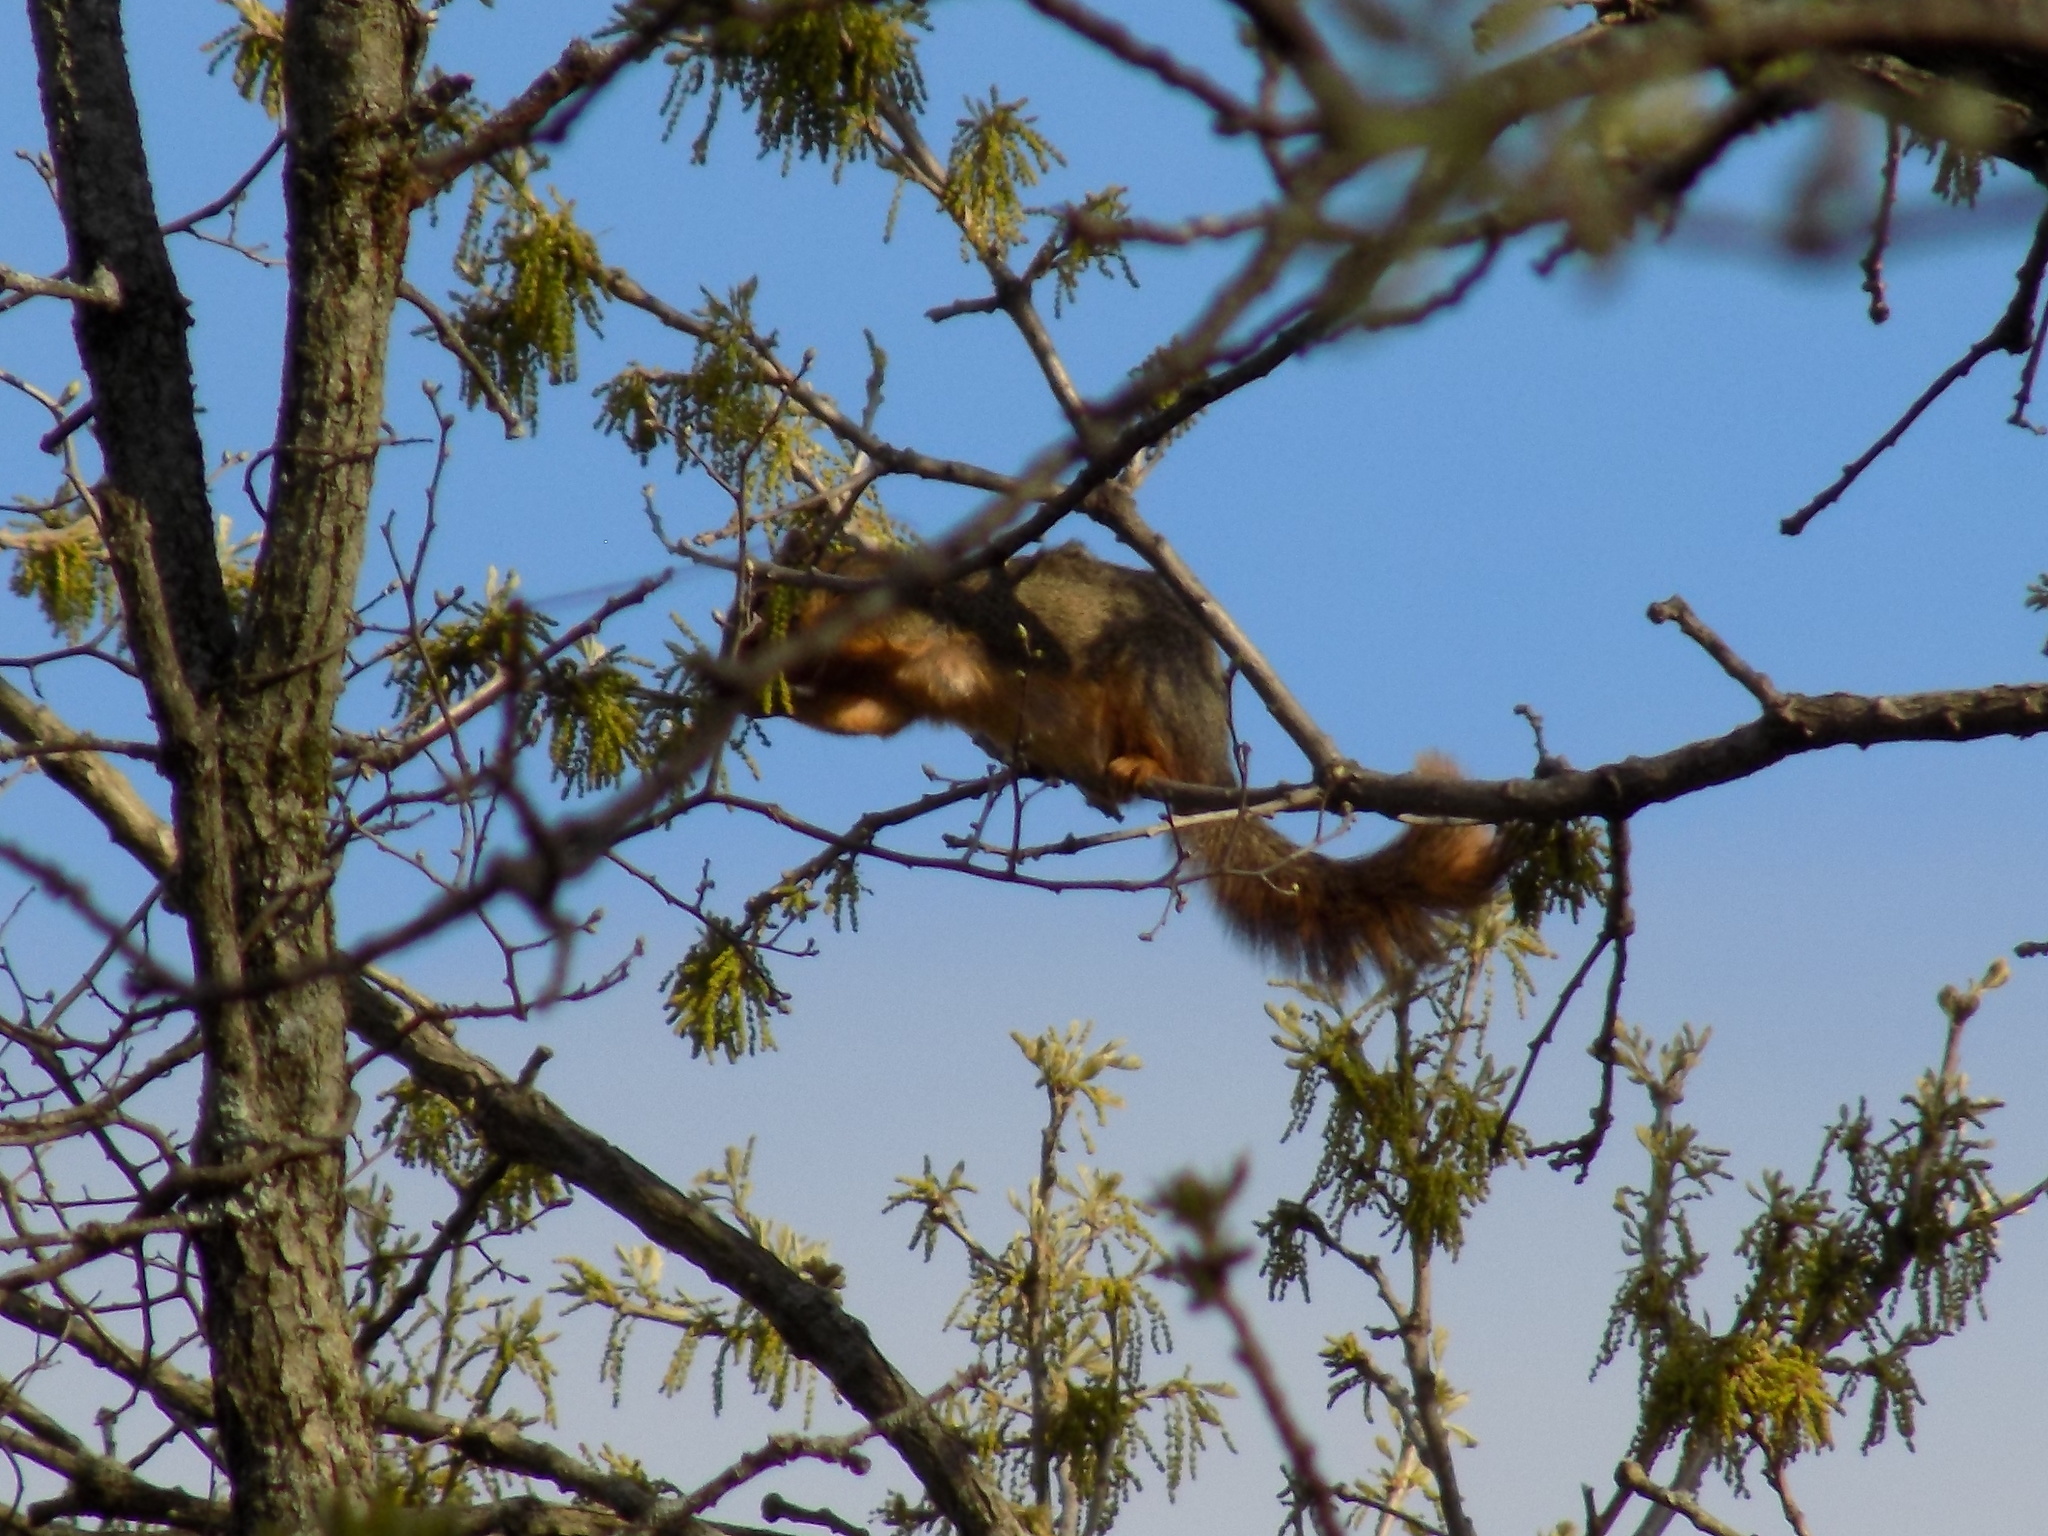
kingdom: Animalia
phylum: Chordata
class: Mammalia
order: Rodentia
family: Sciuridae
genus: Sciurus
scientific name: Sciurus niger
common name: Fox squirrel
